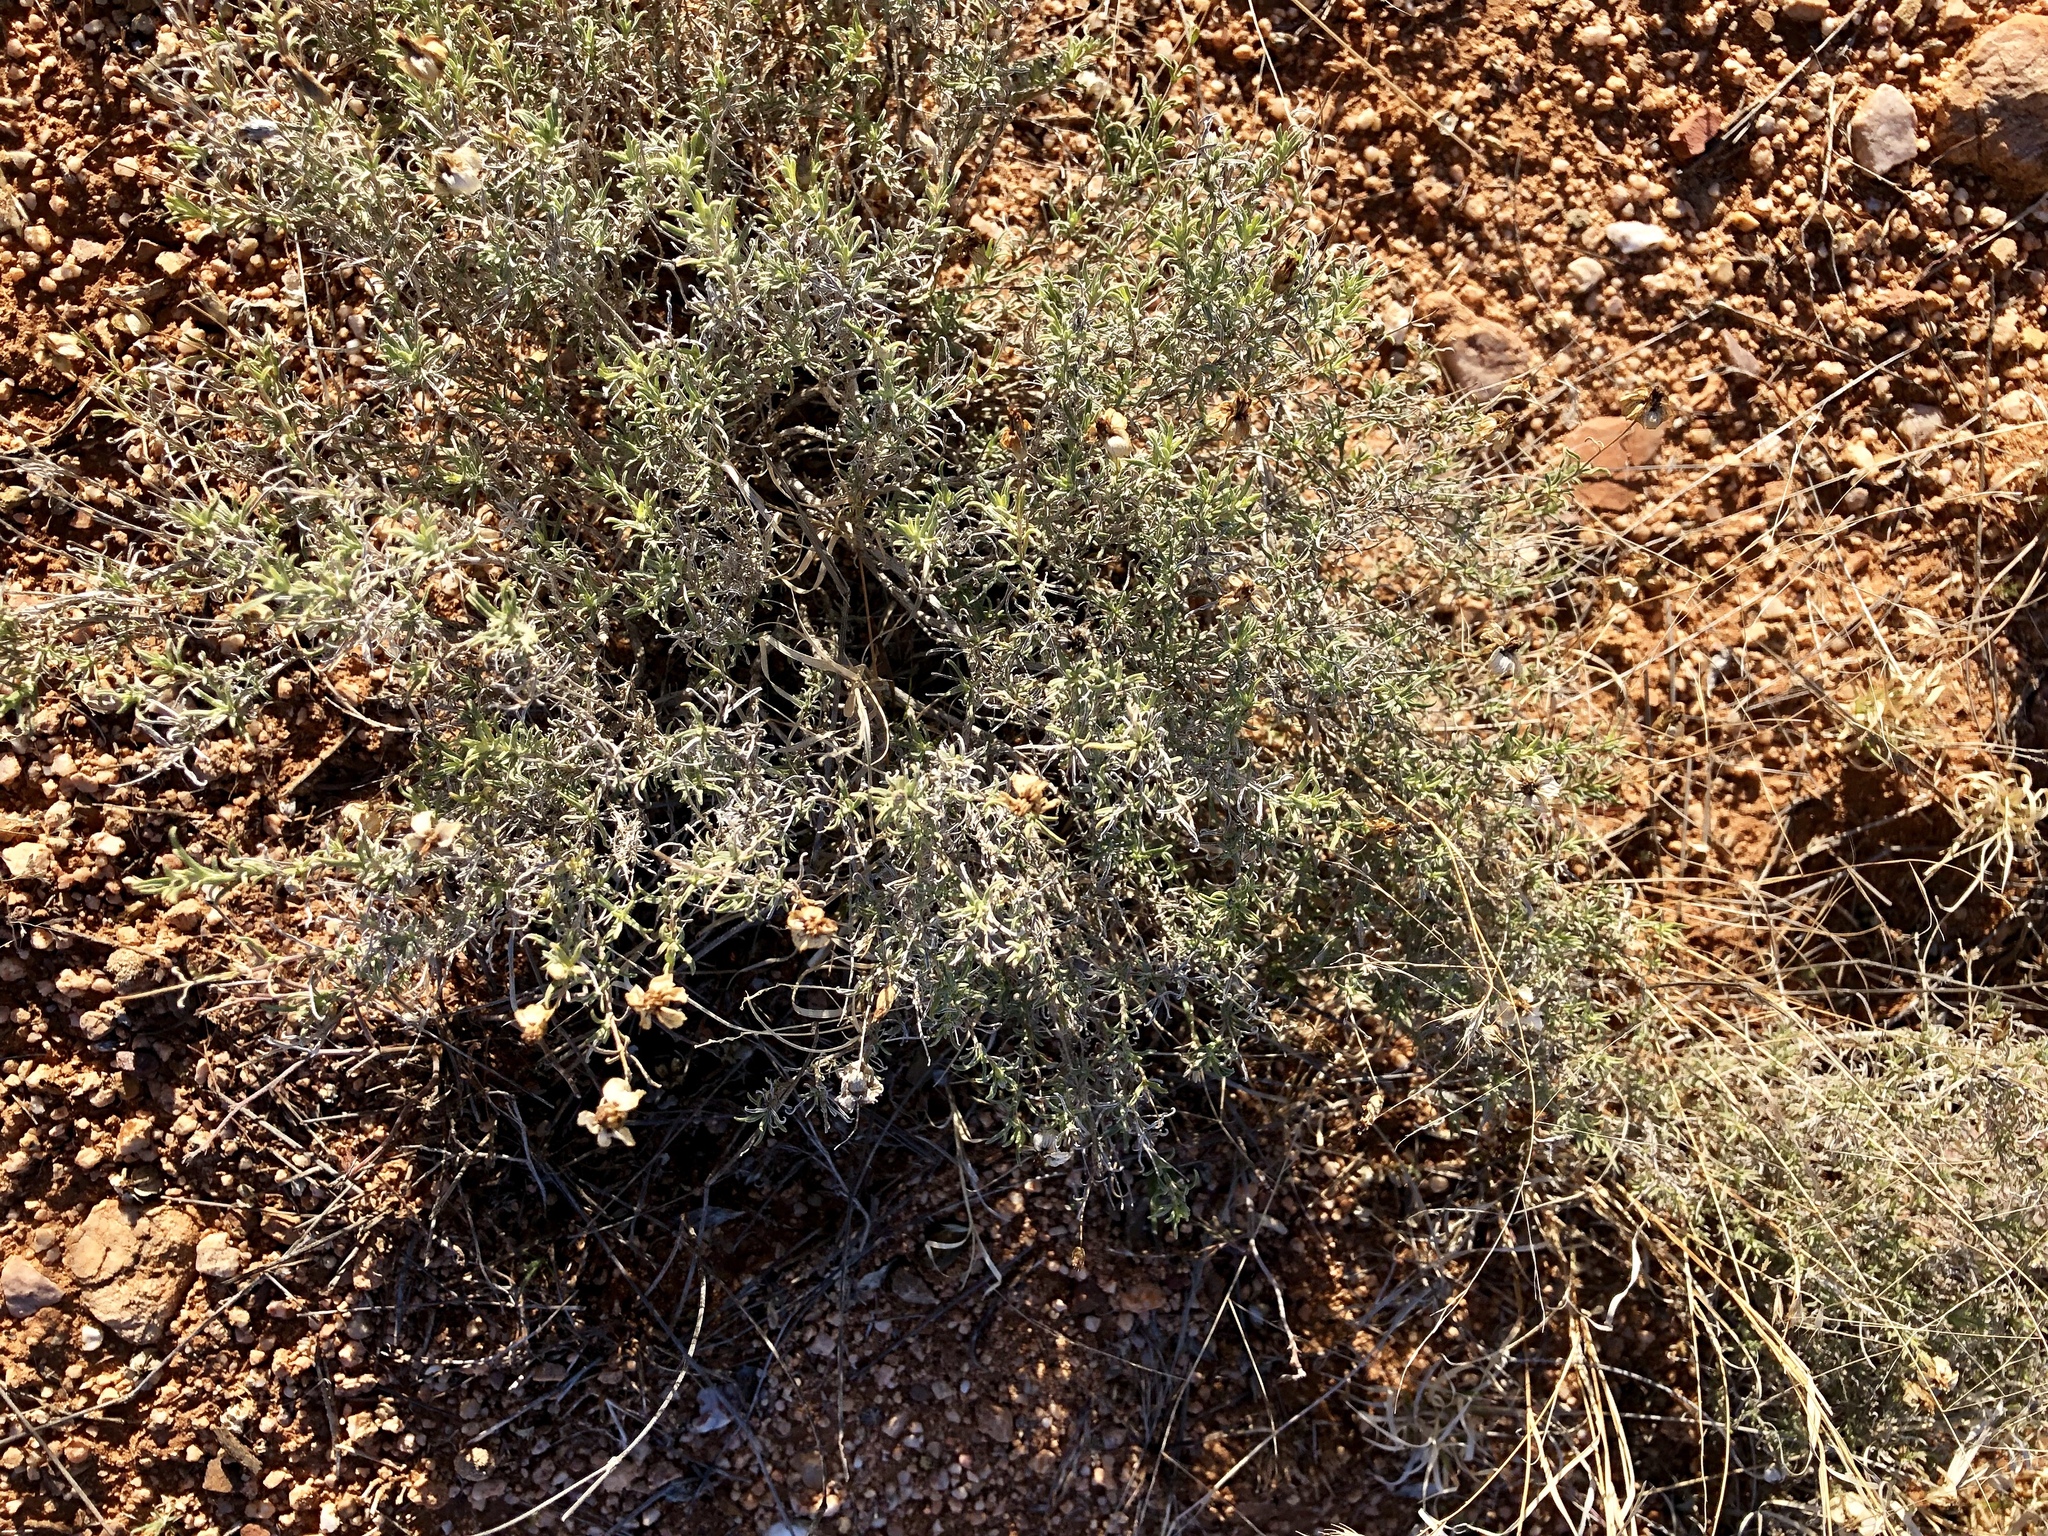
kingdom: Plantae
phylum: Tracheophyta
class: Magnoliopsida
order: Asterales
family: Asteraceae
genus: Zinnia
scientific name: Zinnia acerosa
